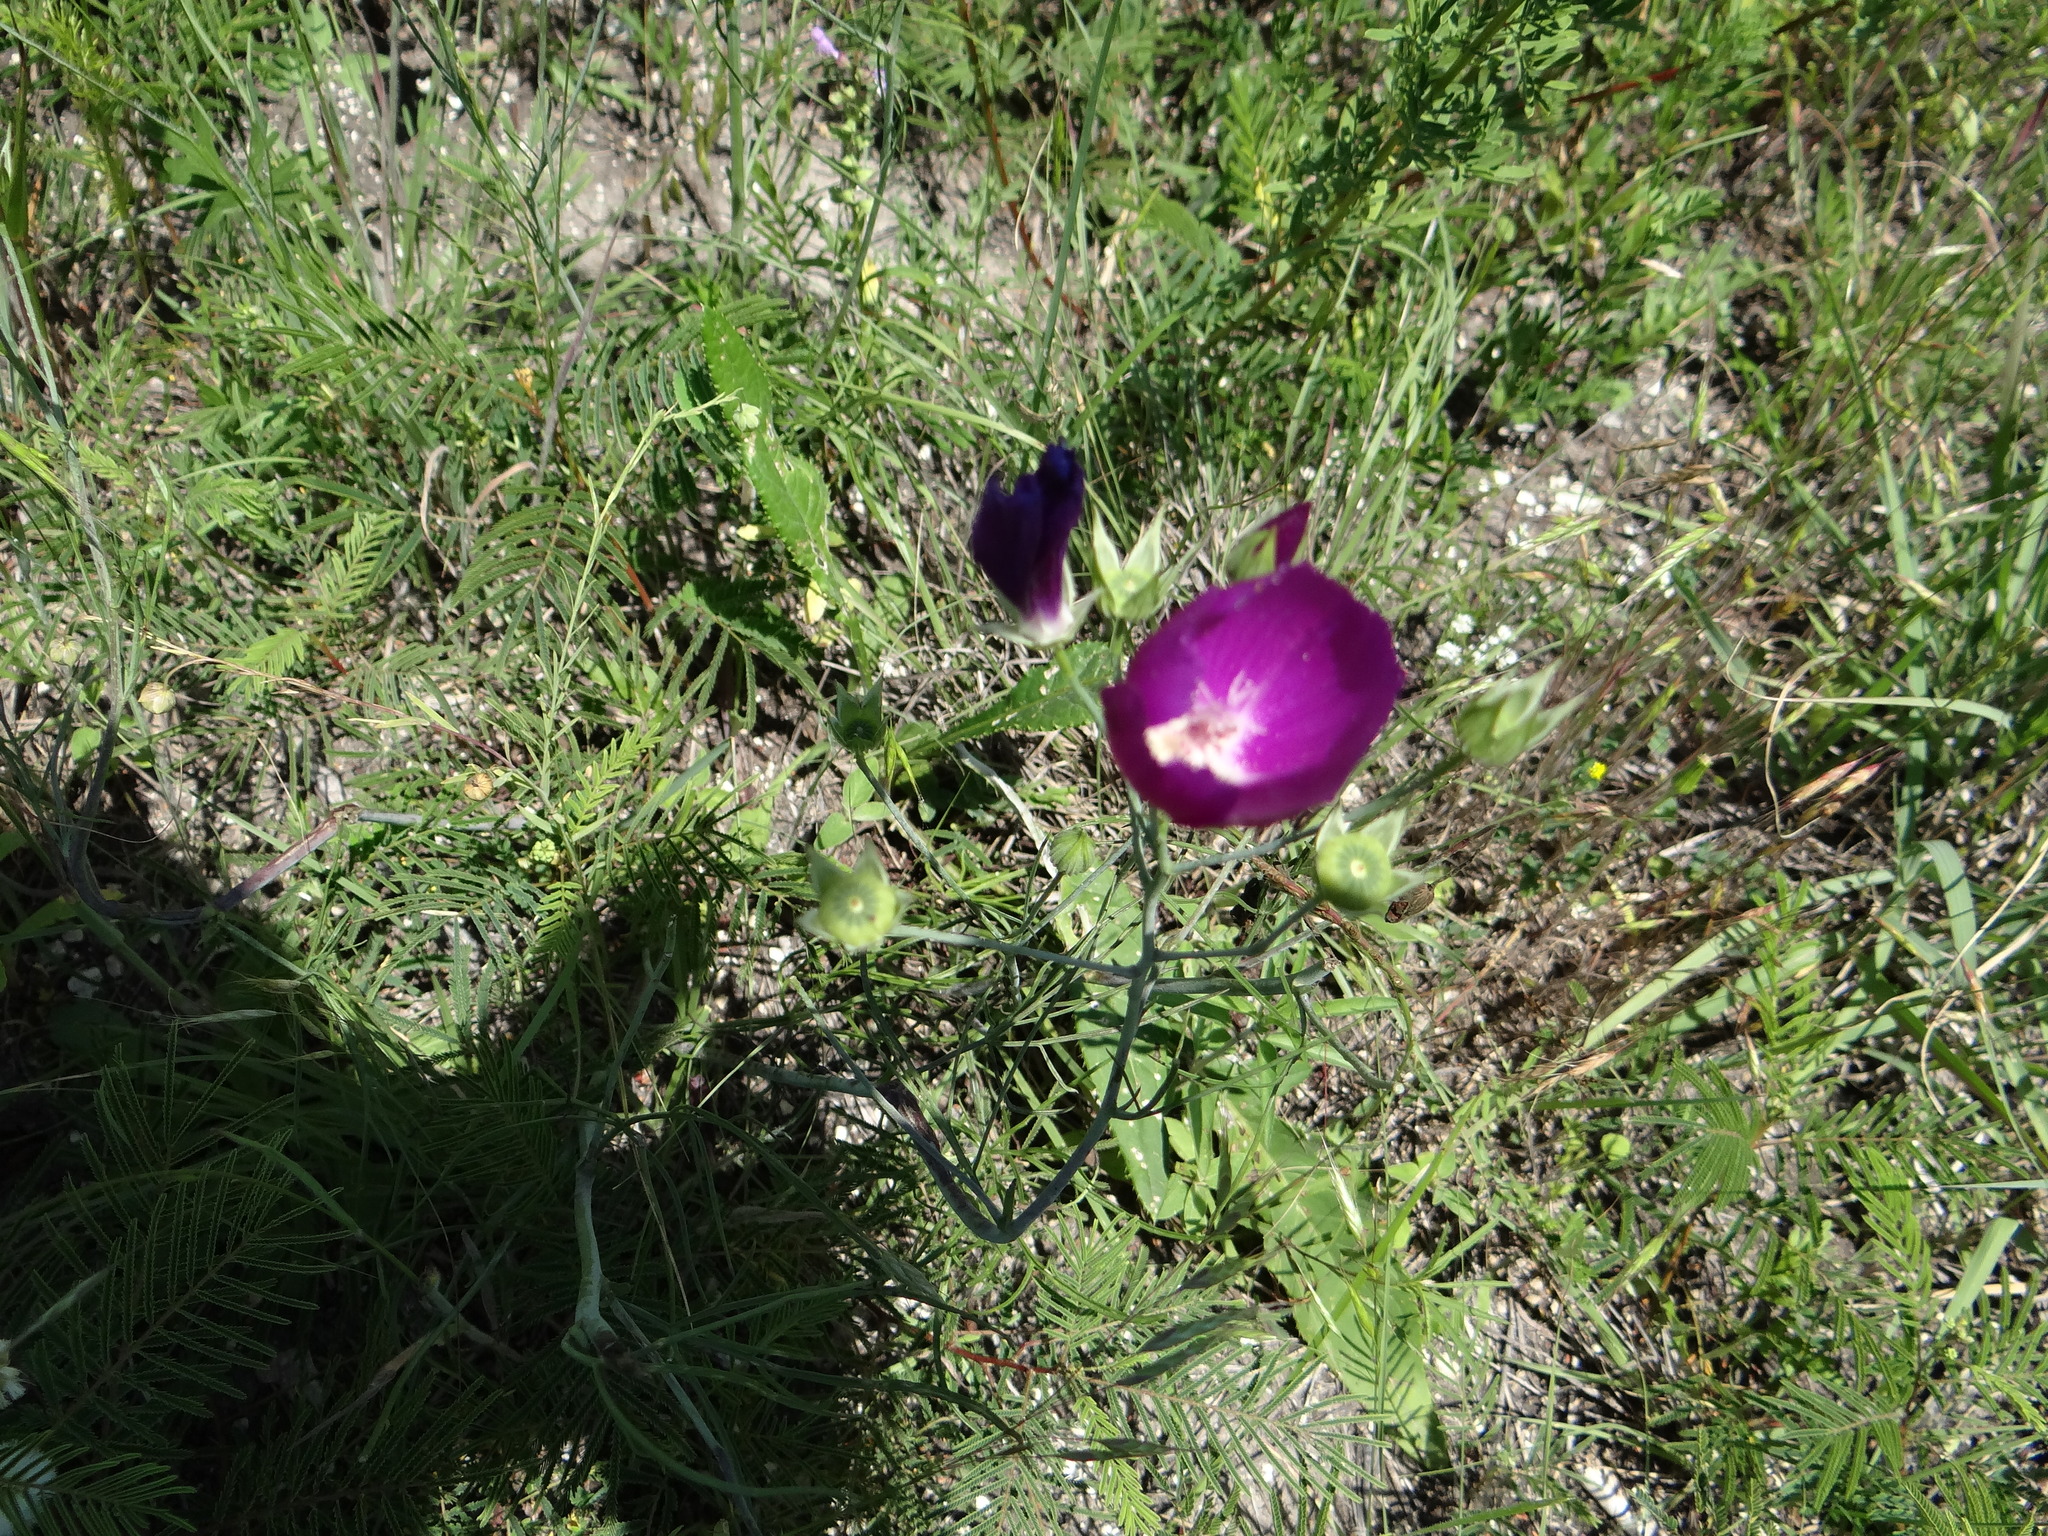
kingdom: Plantae
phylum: Tracheophyta
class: Magnoliopsida
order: Malvales
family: Malvaceae
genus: Callirhoe
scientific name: Callirhoe pedata
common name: Finger poppy-mallow
